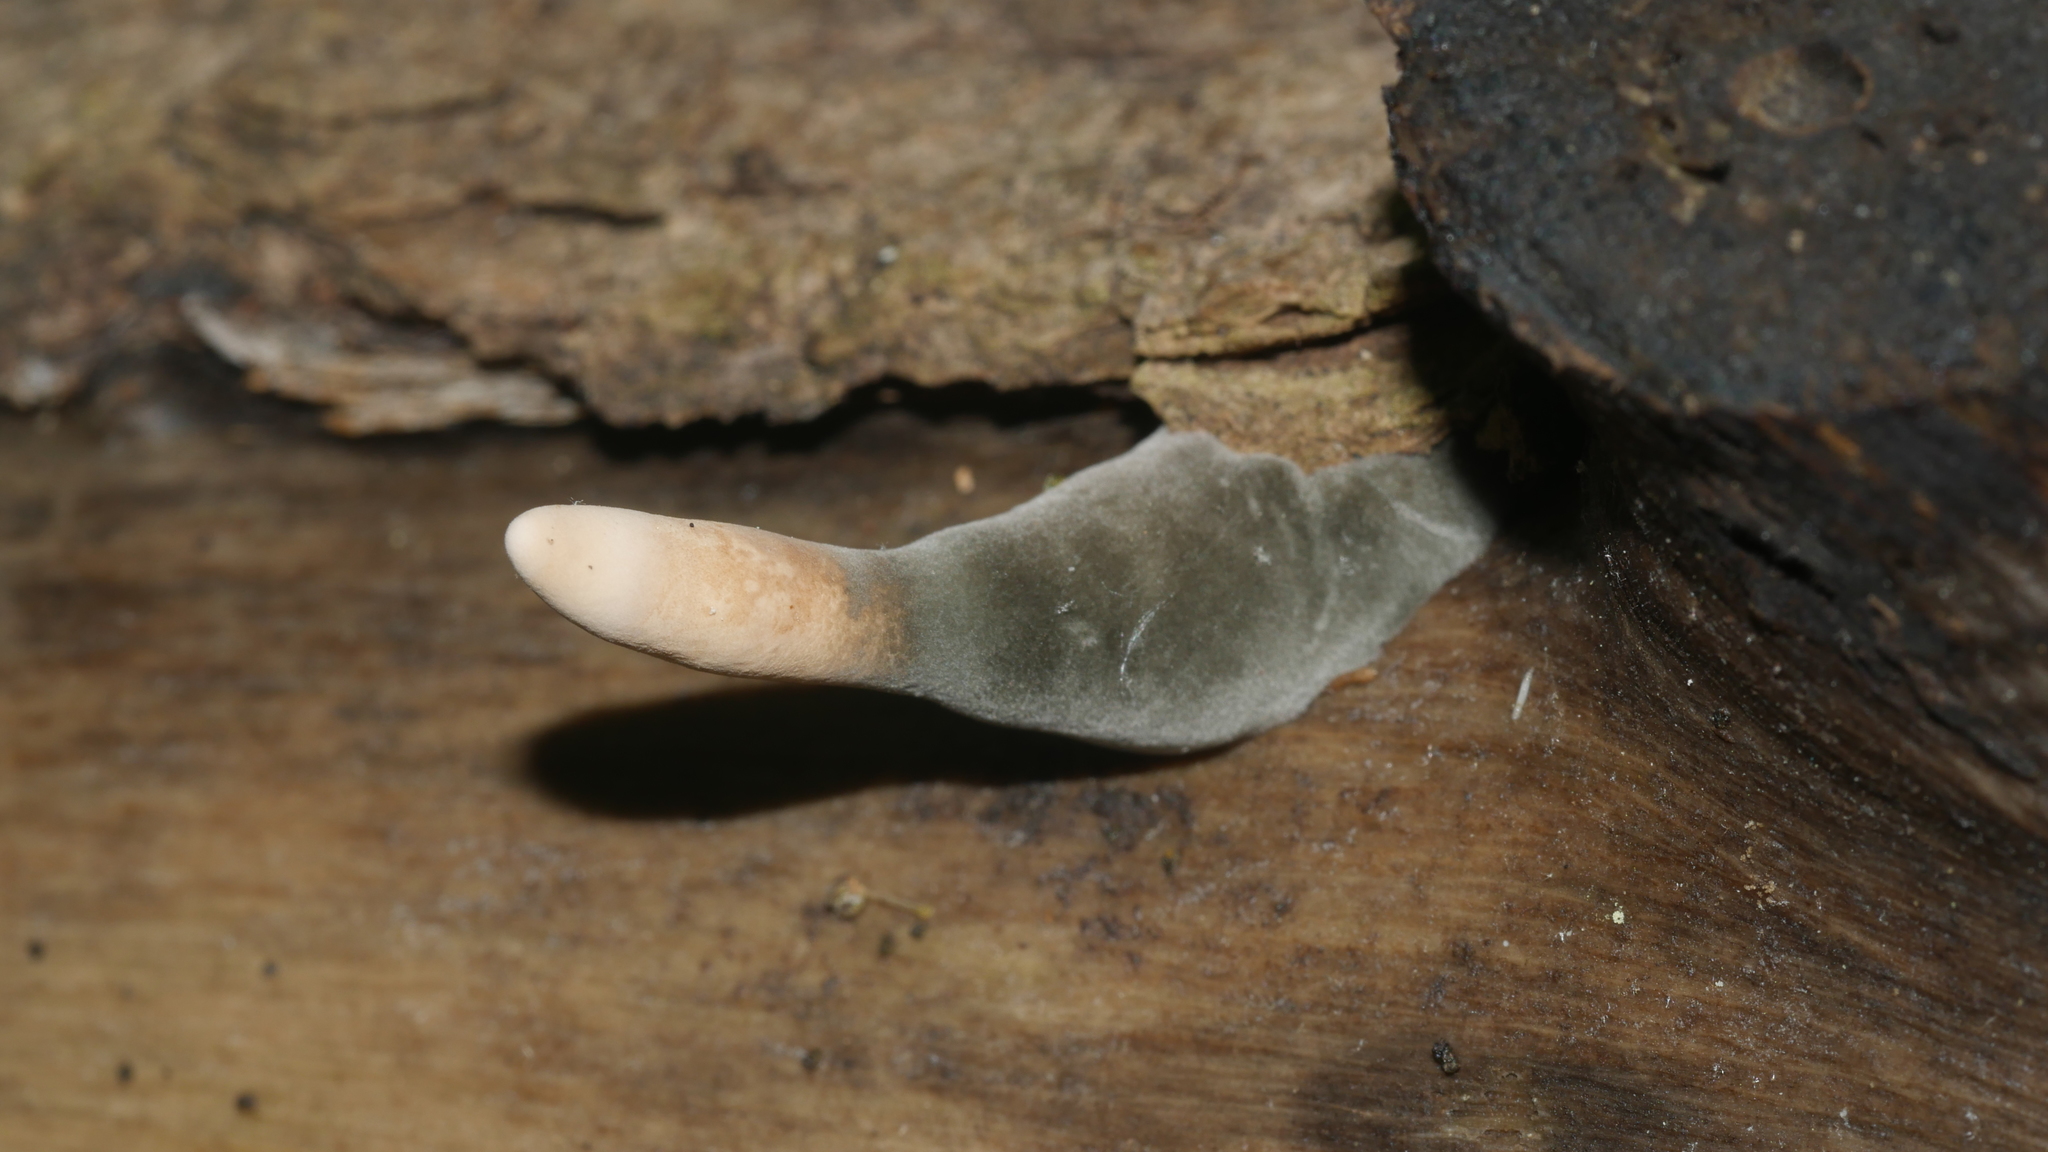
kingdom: Fungi
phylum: Ascomycota
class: Sordariomycetes
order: Xylariales
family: Xylariaceae
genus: Xylaria
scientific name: Xylaria cubensis
